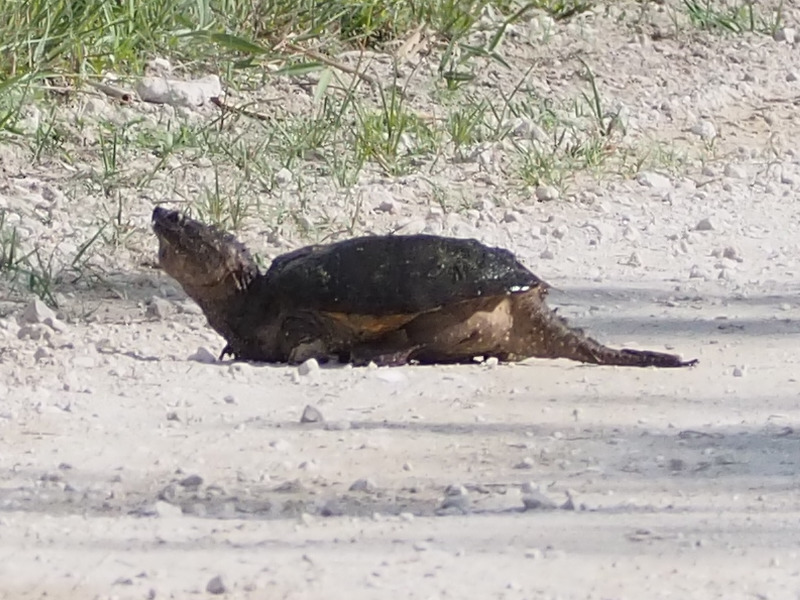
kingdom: Animalia
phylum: Chordata
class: Testudines
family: Chelydridae
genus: Chelydra
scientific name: Chelydra serpentina
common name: Common snapping turtle
